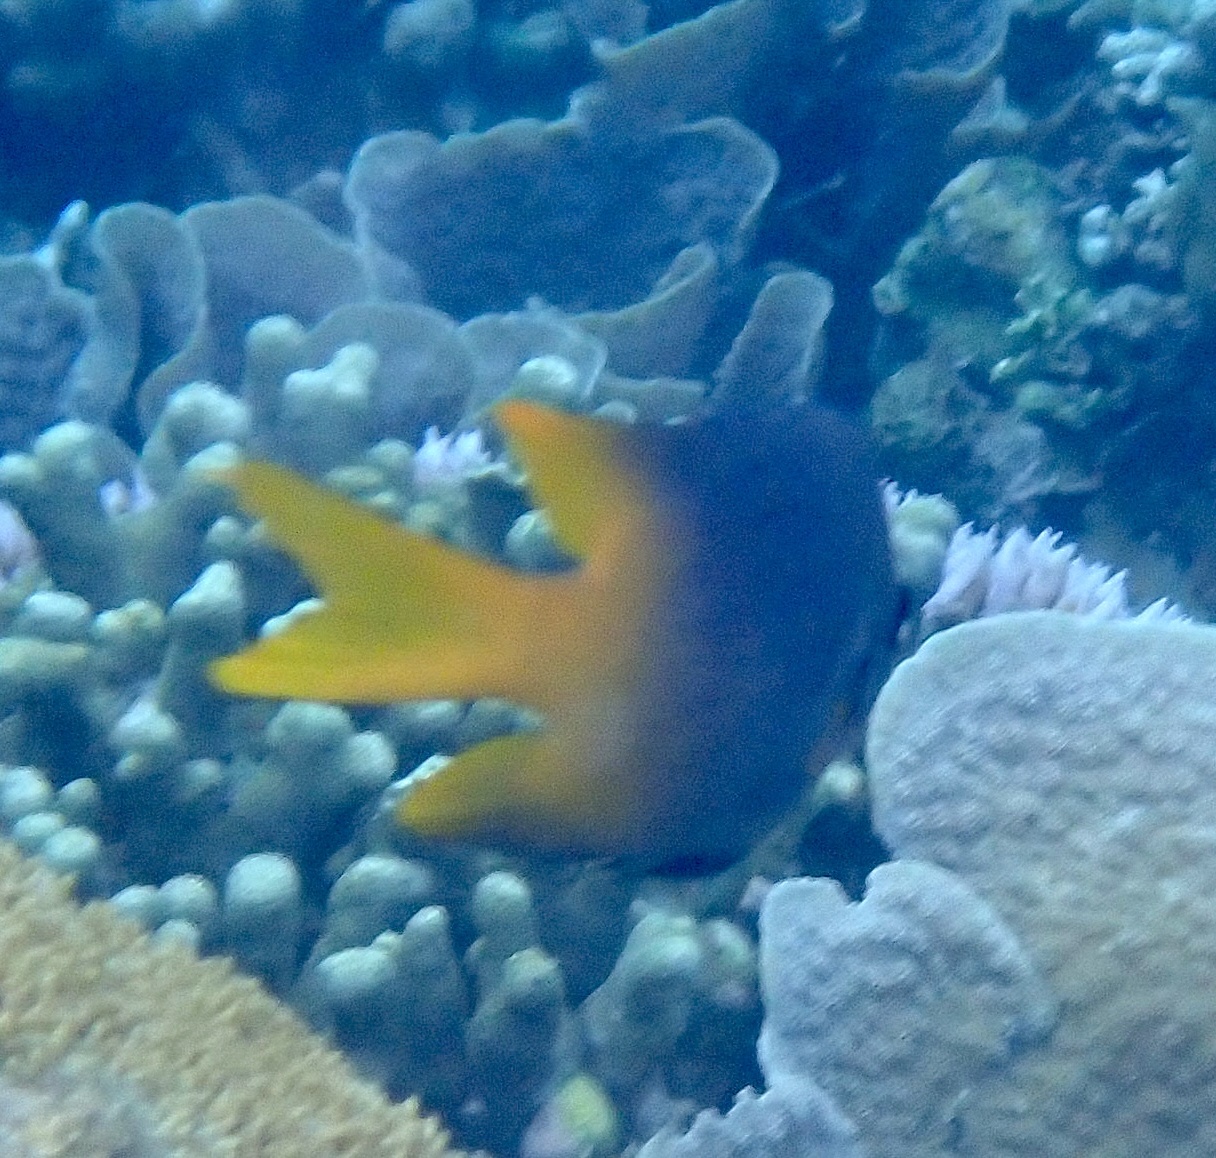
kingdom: Animalia
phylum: Chordata
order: Perciformes
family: Pomacentridae
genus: Neoglyphidodon
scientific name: Neoglyphidodon nigroris
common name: Behn's damsel
